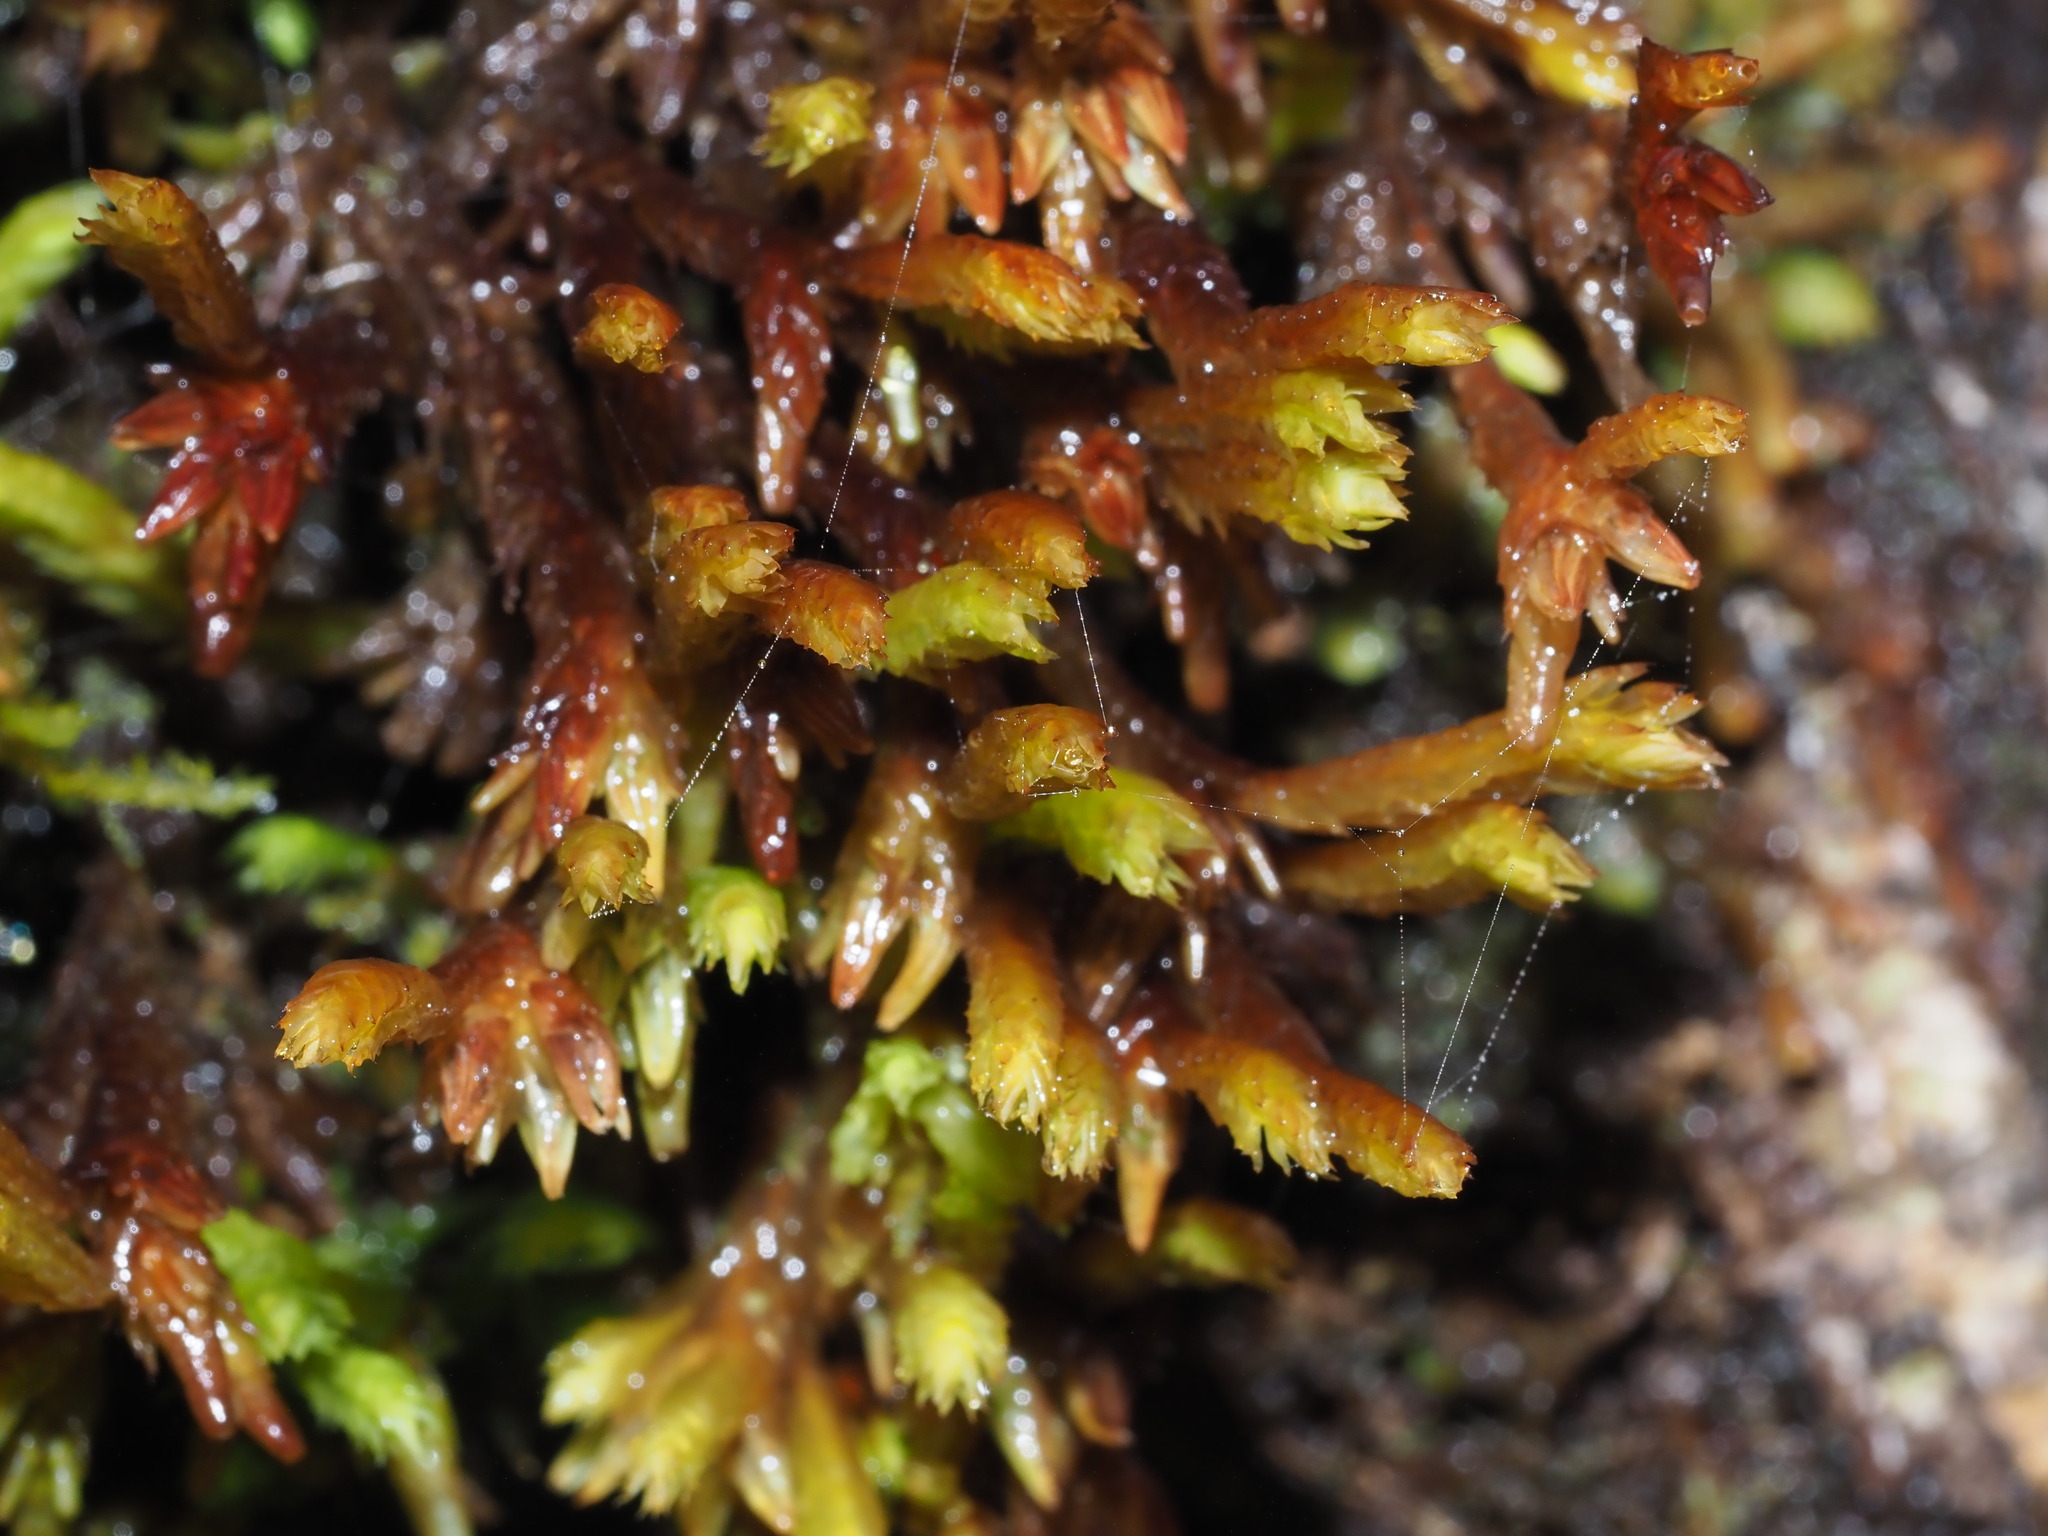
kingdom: Plantae
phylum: Marchantiophyta
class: Jungermanniopsida
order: Pleuroziales
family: Pleuroziaceae
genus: Pleurozia
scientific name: Pleurozia subinflata
